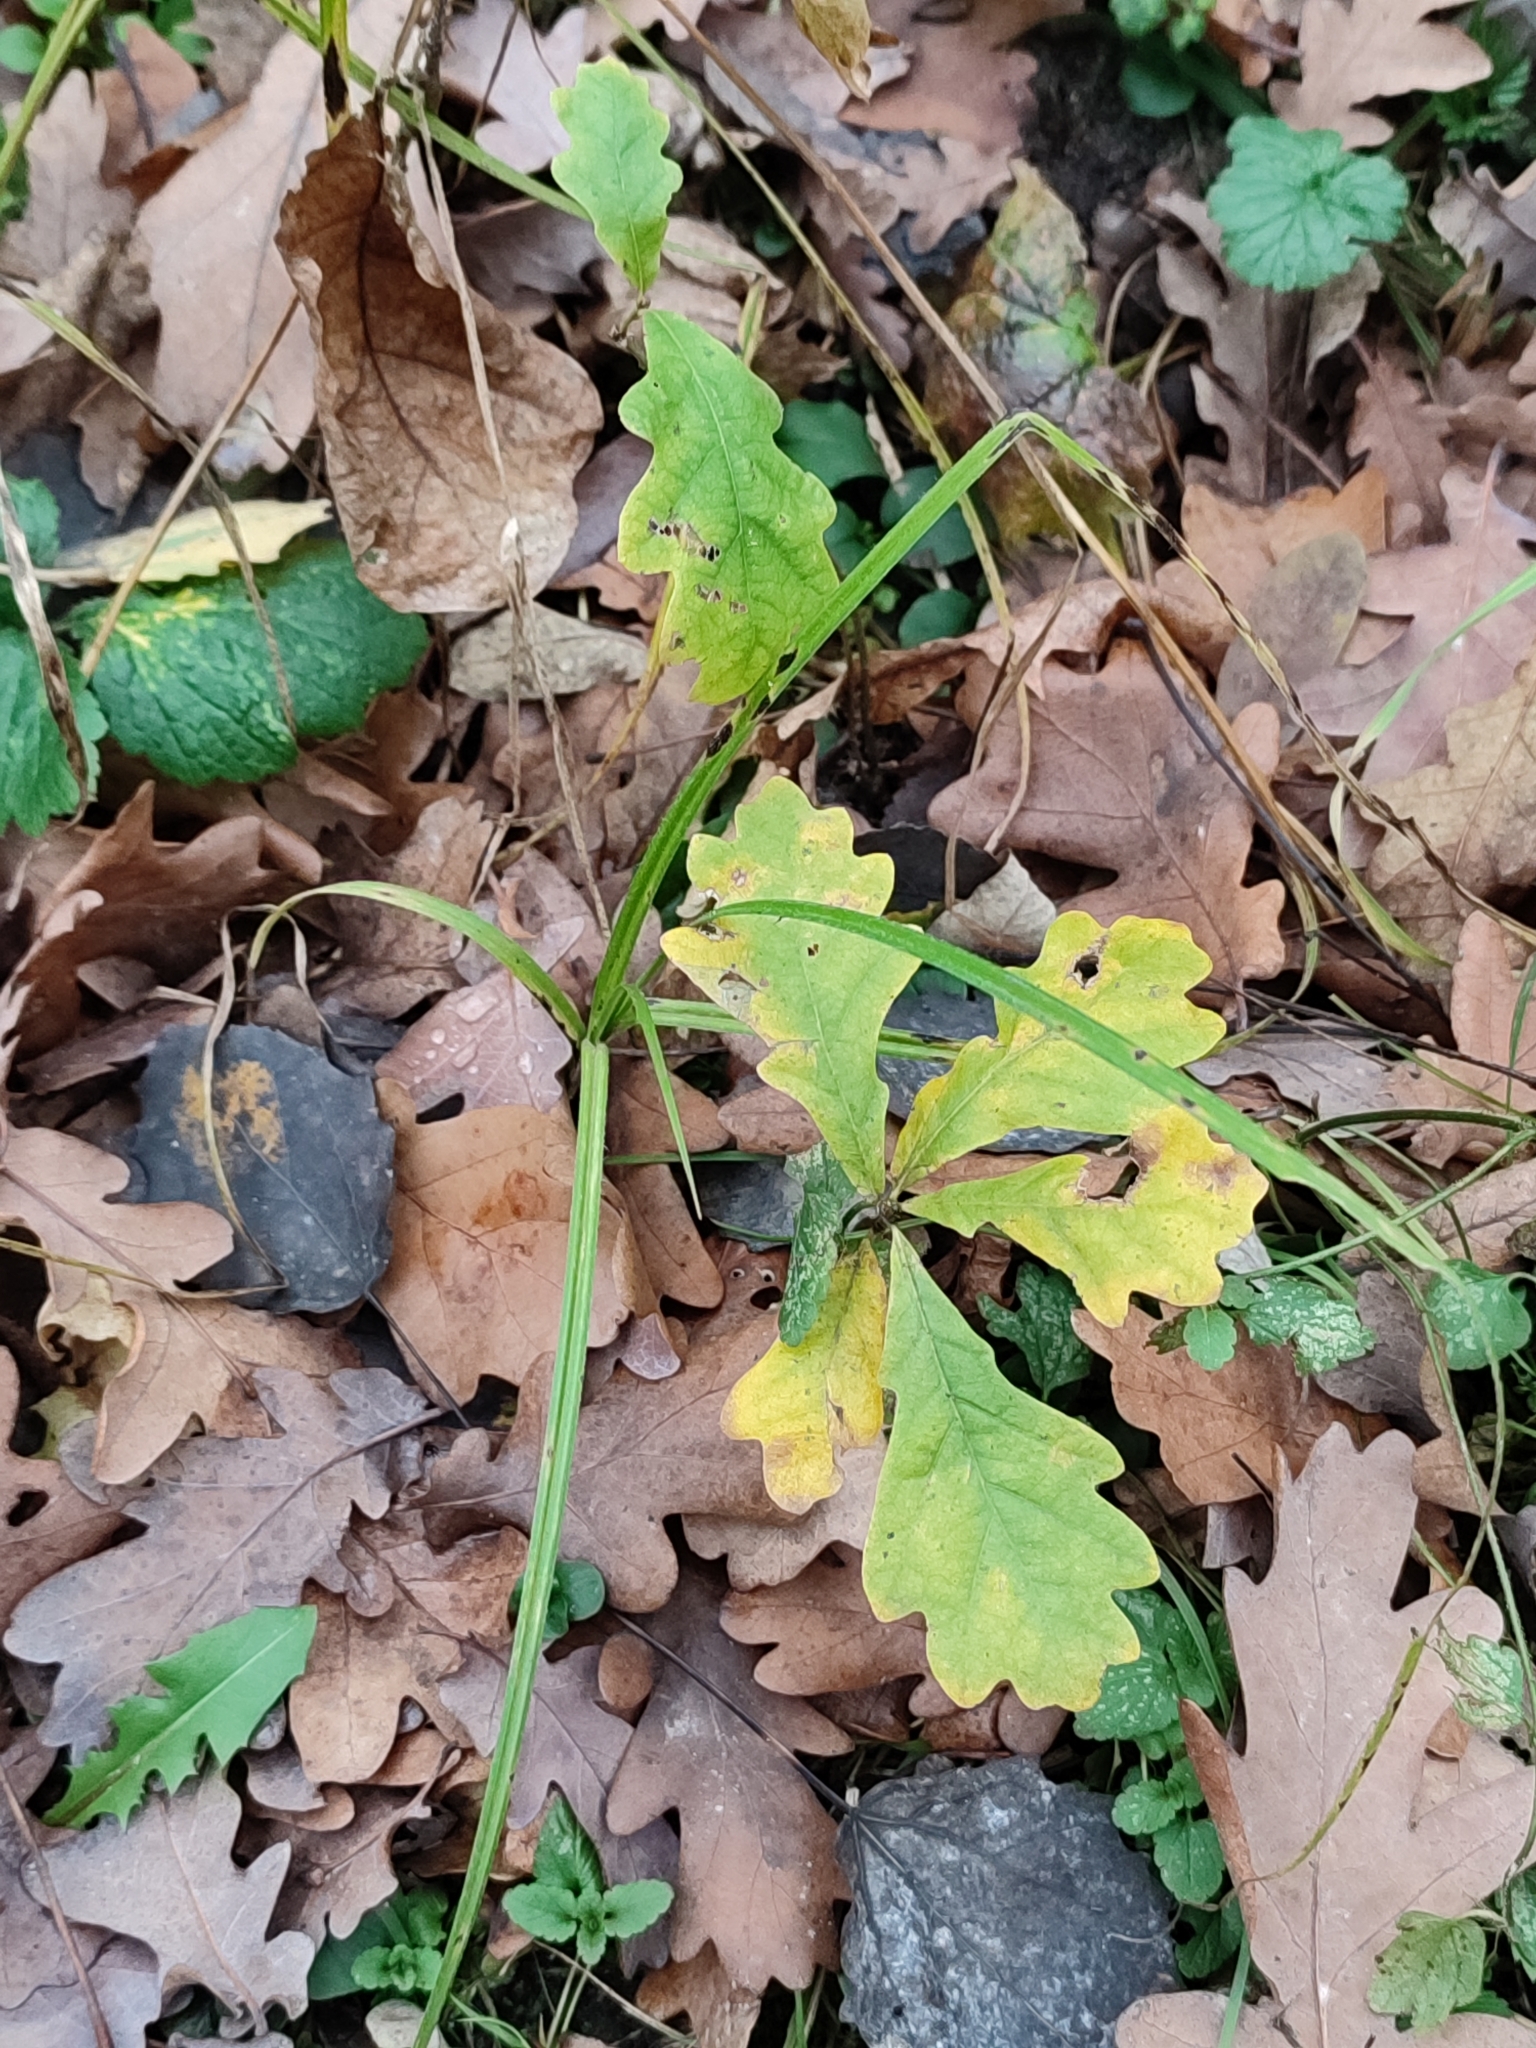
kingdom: Plantae
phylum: Tracheophyta
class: Magnoliopsida
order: Fagales
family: Fagaceae
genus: Quercus
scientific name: Quercus robur
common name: Pedunculate oak
